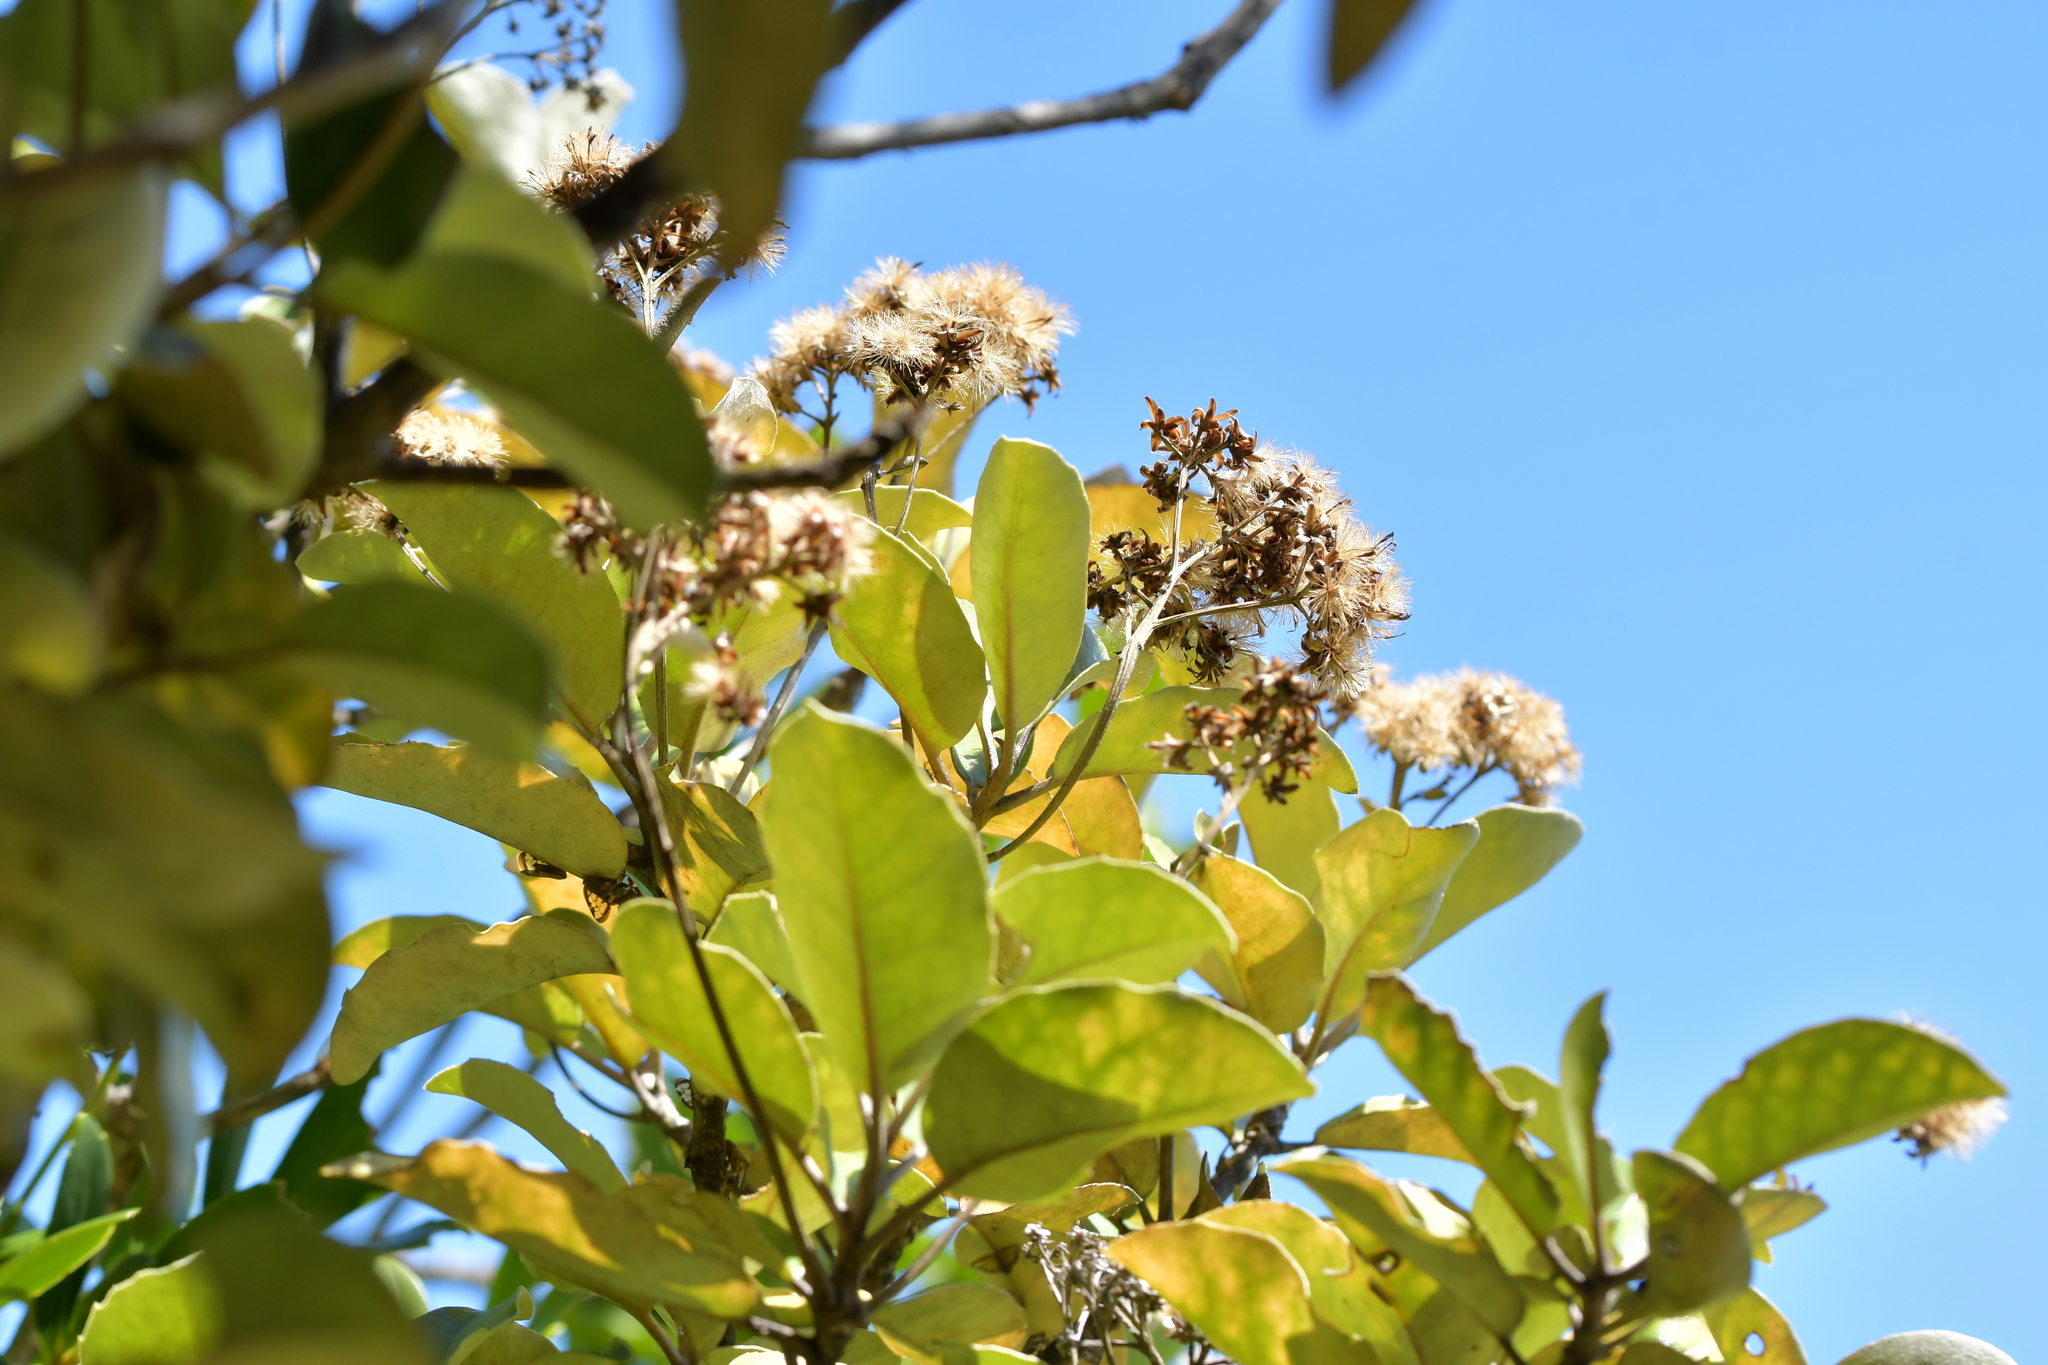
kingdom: Plantae
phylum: Tracheophyta
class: Magnoliopsida
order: Asterales
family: Asteraceae
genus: Olearia
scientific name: Olearia furfuracea
